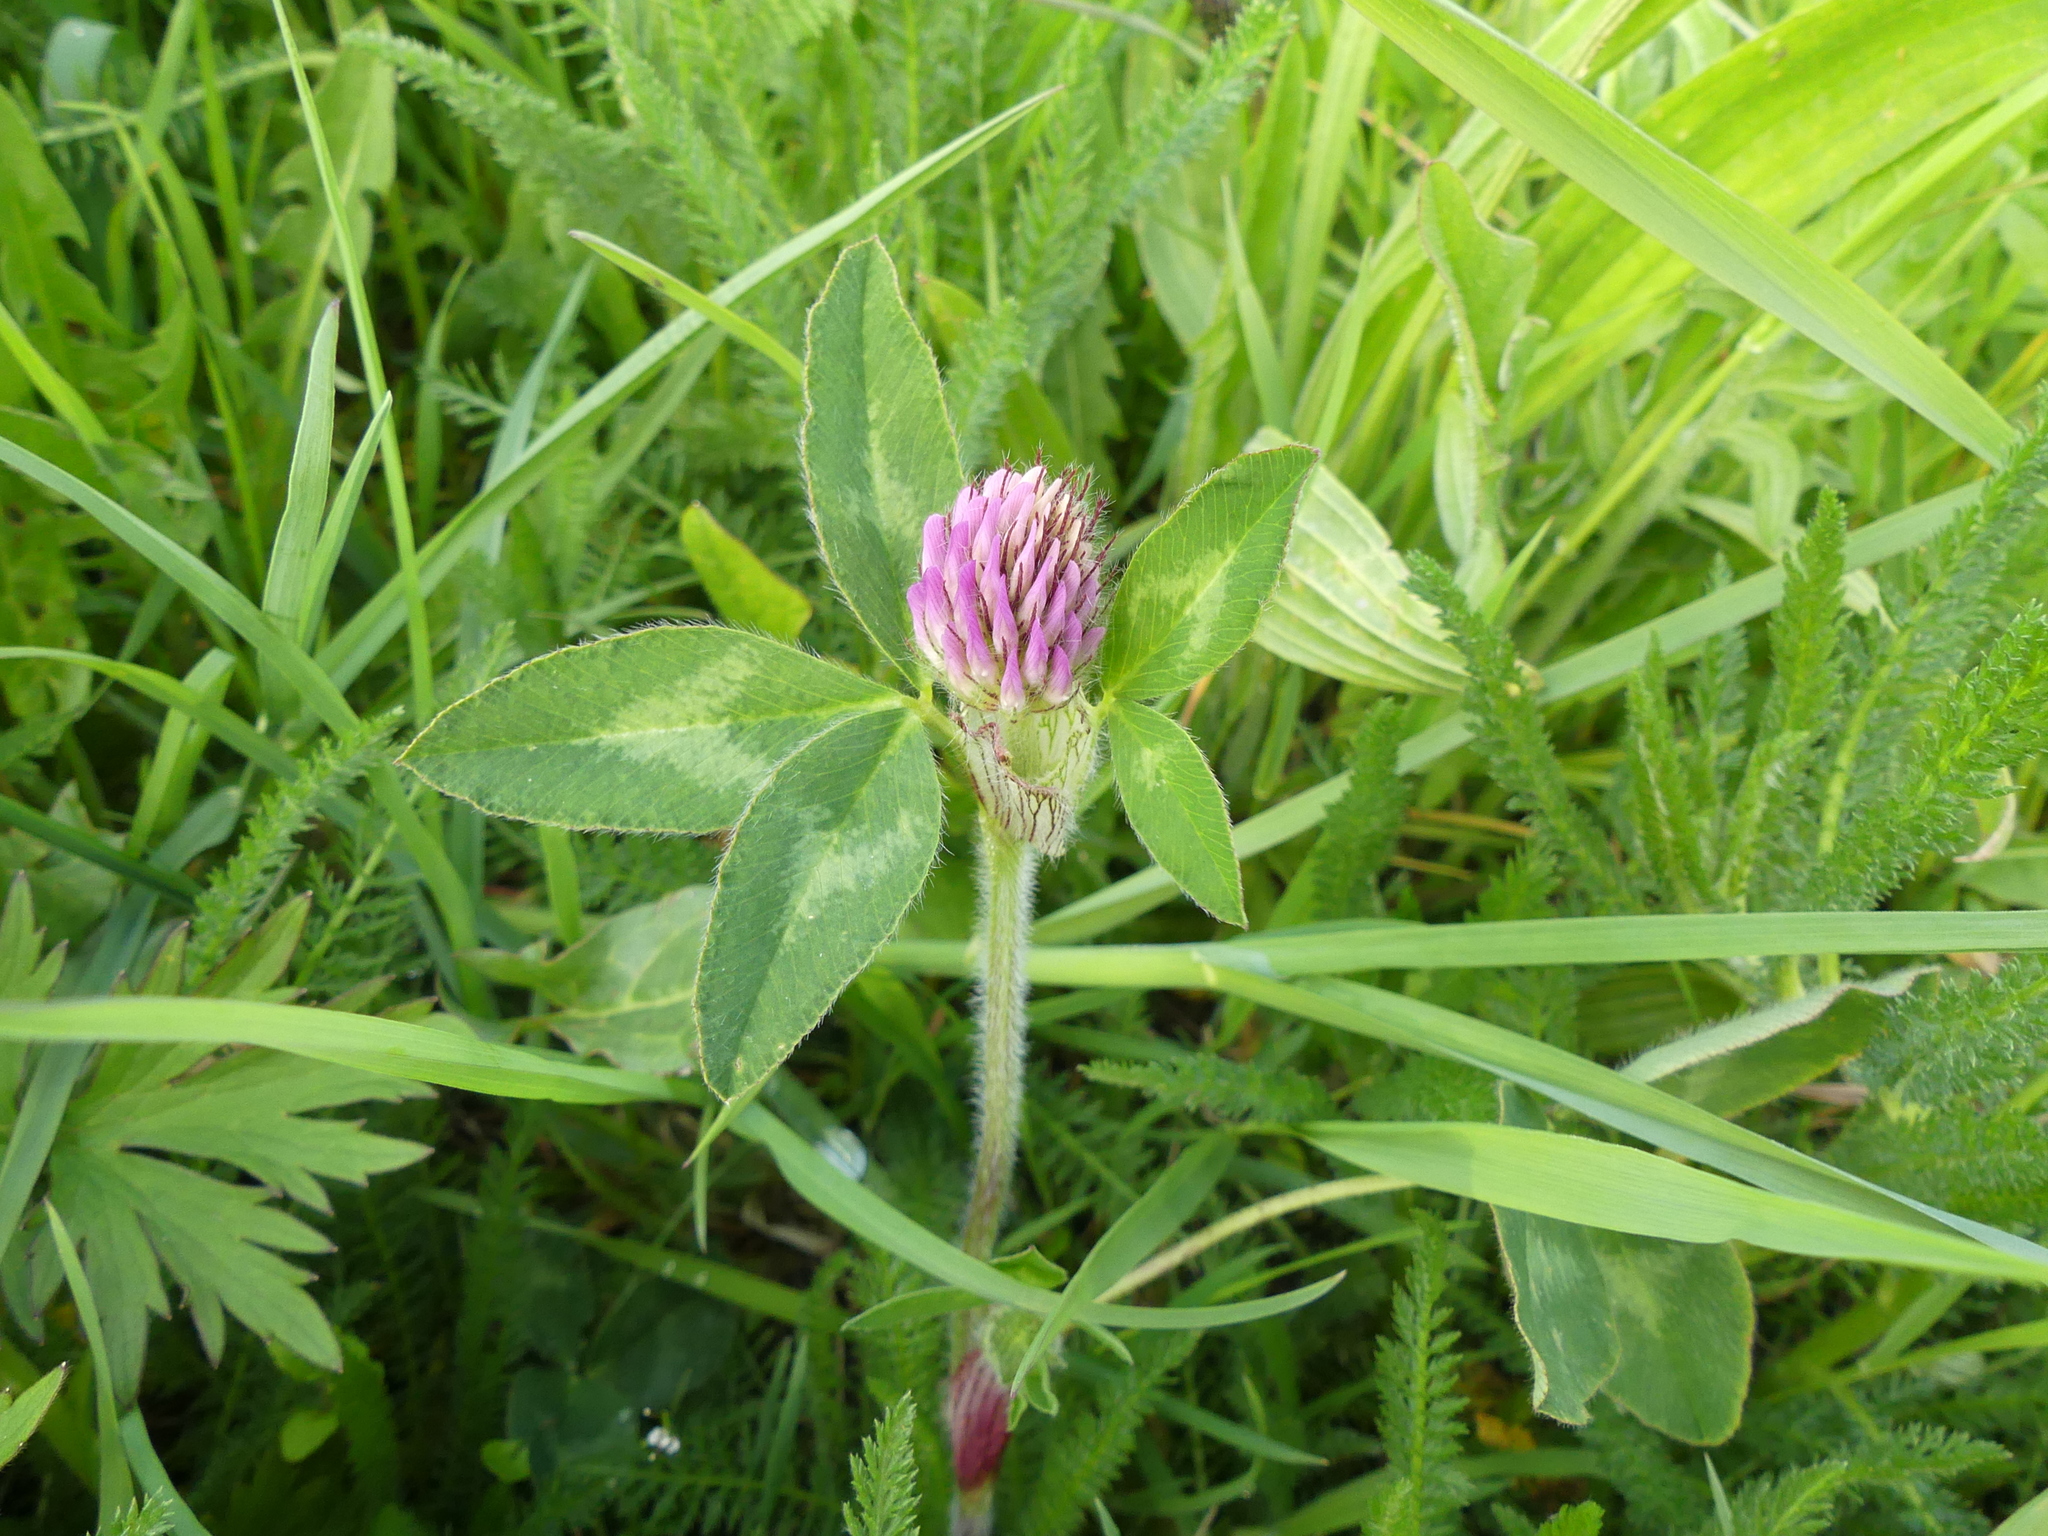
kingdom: Plantae
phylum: Tracheophyta
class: Magnoliopsida
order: Fabales
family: Fabaceae
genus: Trifolium
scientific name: Trifolium pratense
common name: Red clover
